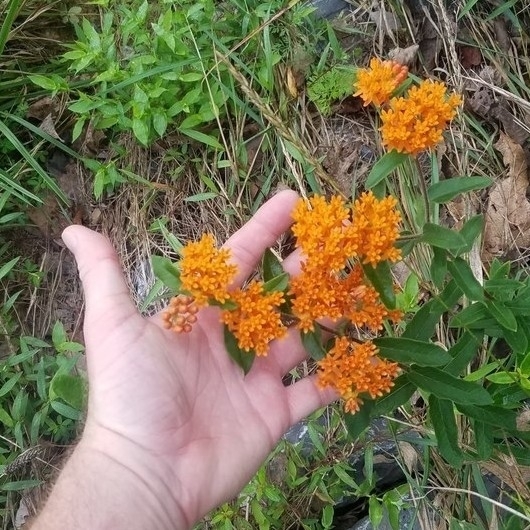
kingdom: Plantae
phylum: Tracheophyta
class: Magnoliopsida
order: Gentianales
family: Apocynaceae
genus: Asclepias
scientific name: Asclepias tuberosa
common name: Butterfly milkweed
